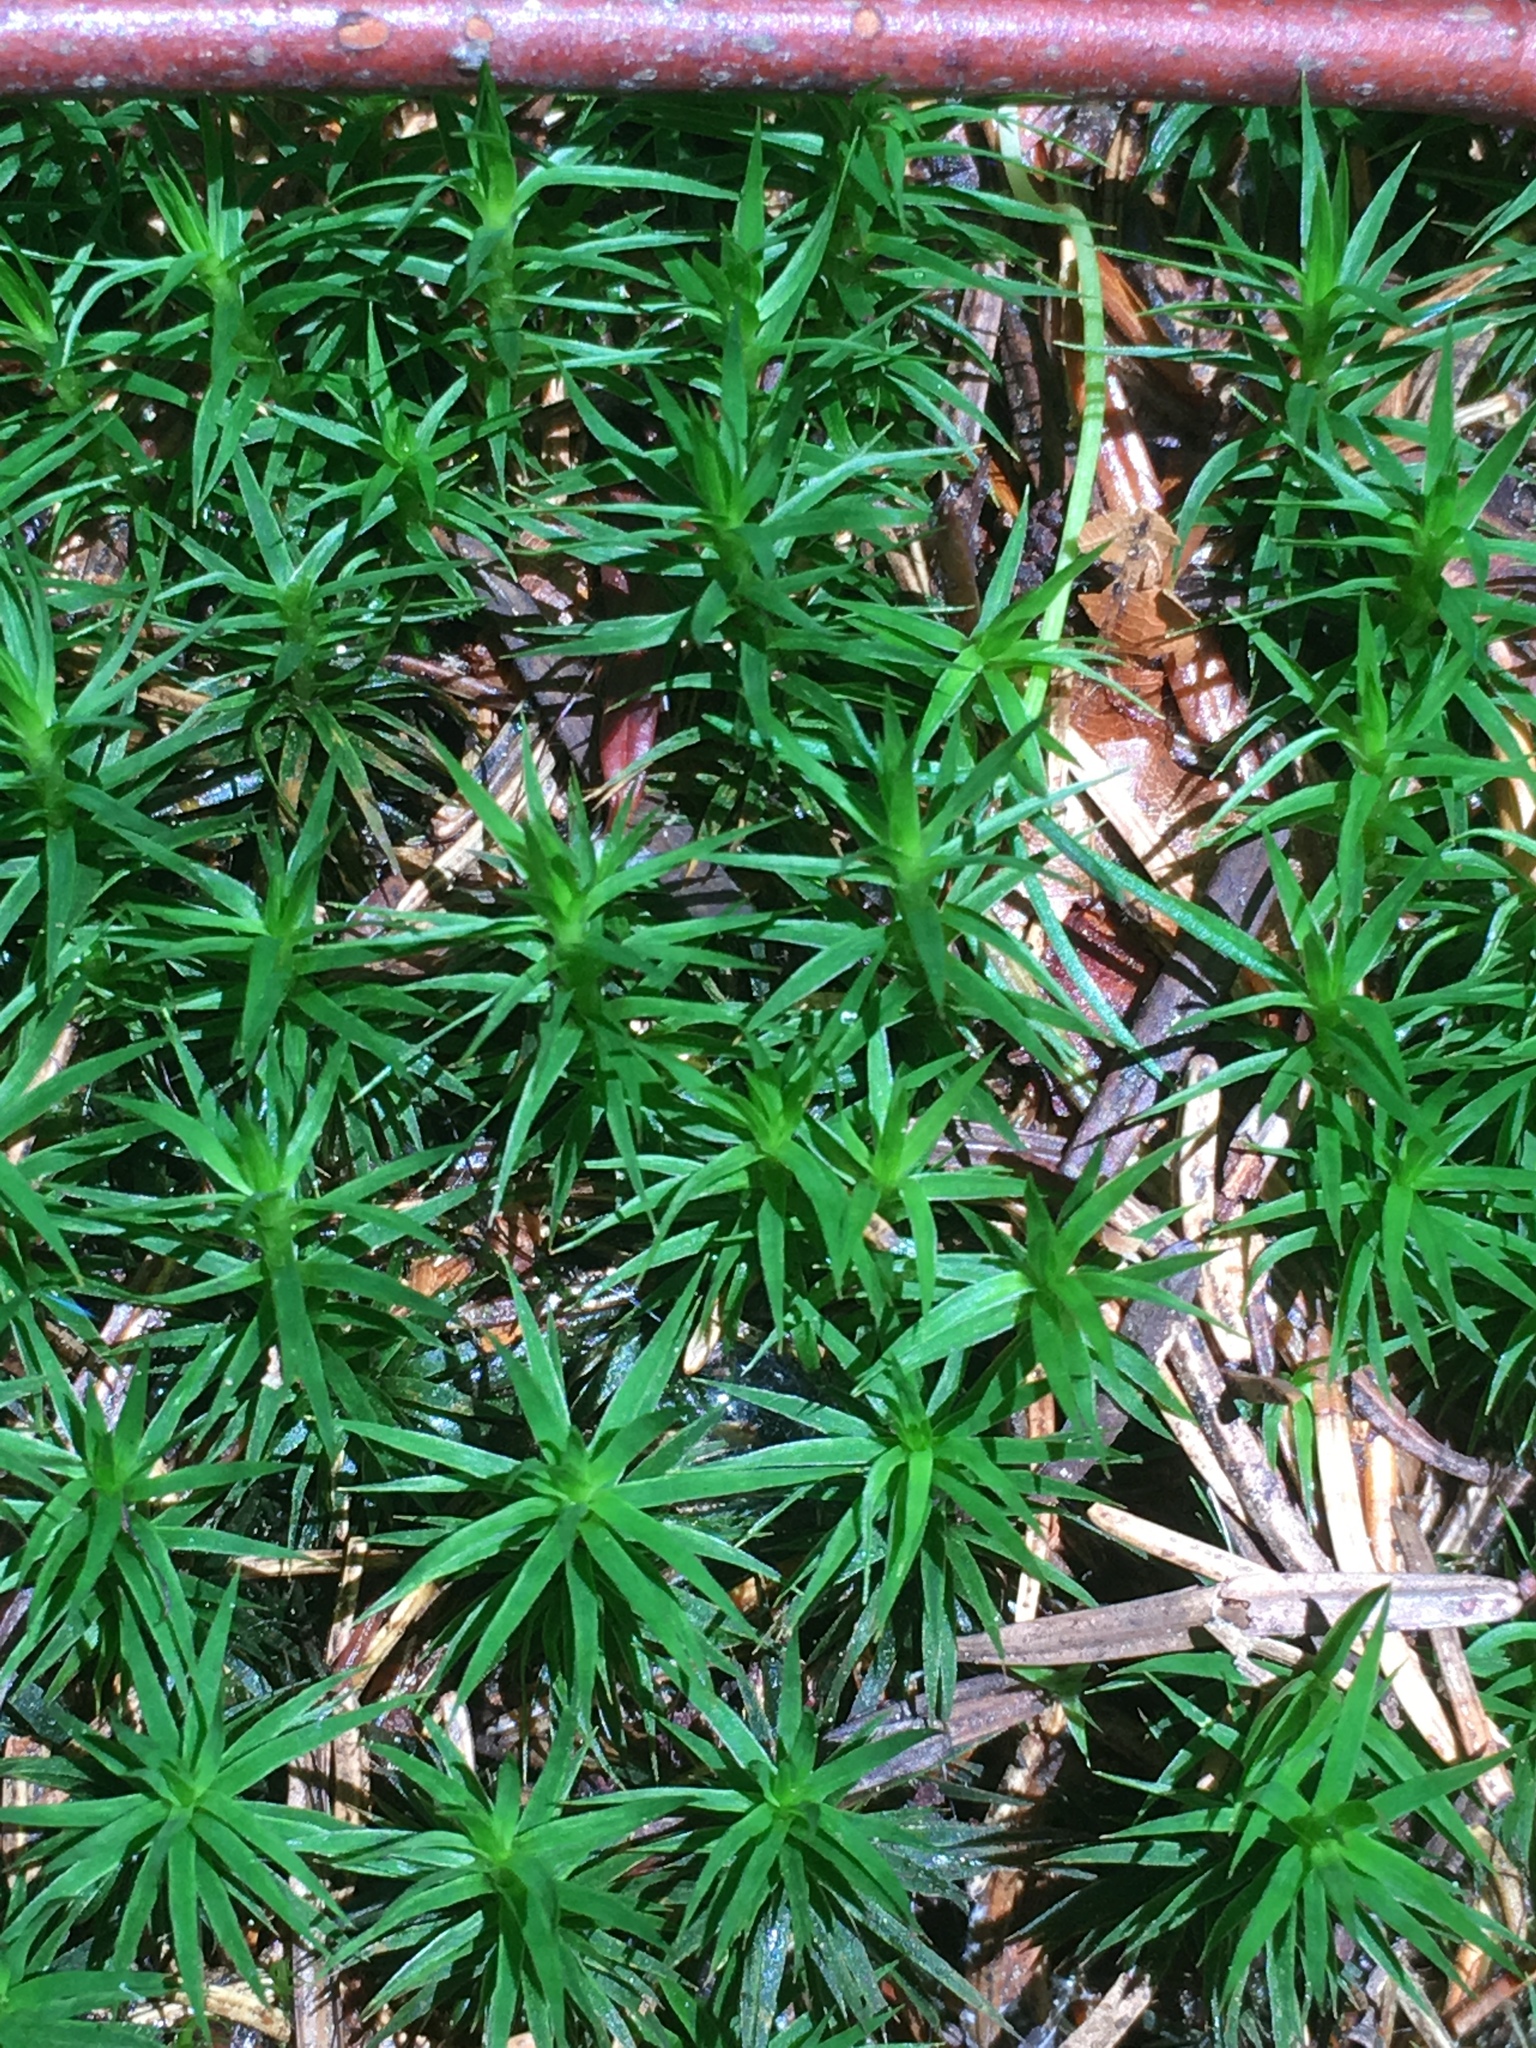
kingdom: Plantae
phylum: Bryophyta
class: Polytrichopsida
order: Polytrichales
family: Polytrichaceae
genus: Polytrichum
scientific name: Polytrichum formosum
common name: Bank haircap moss
